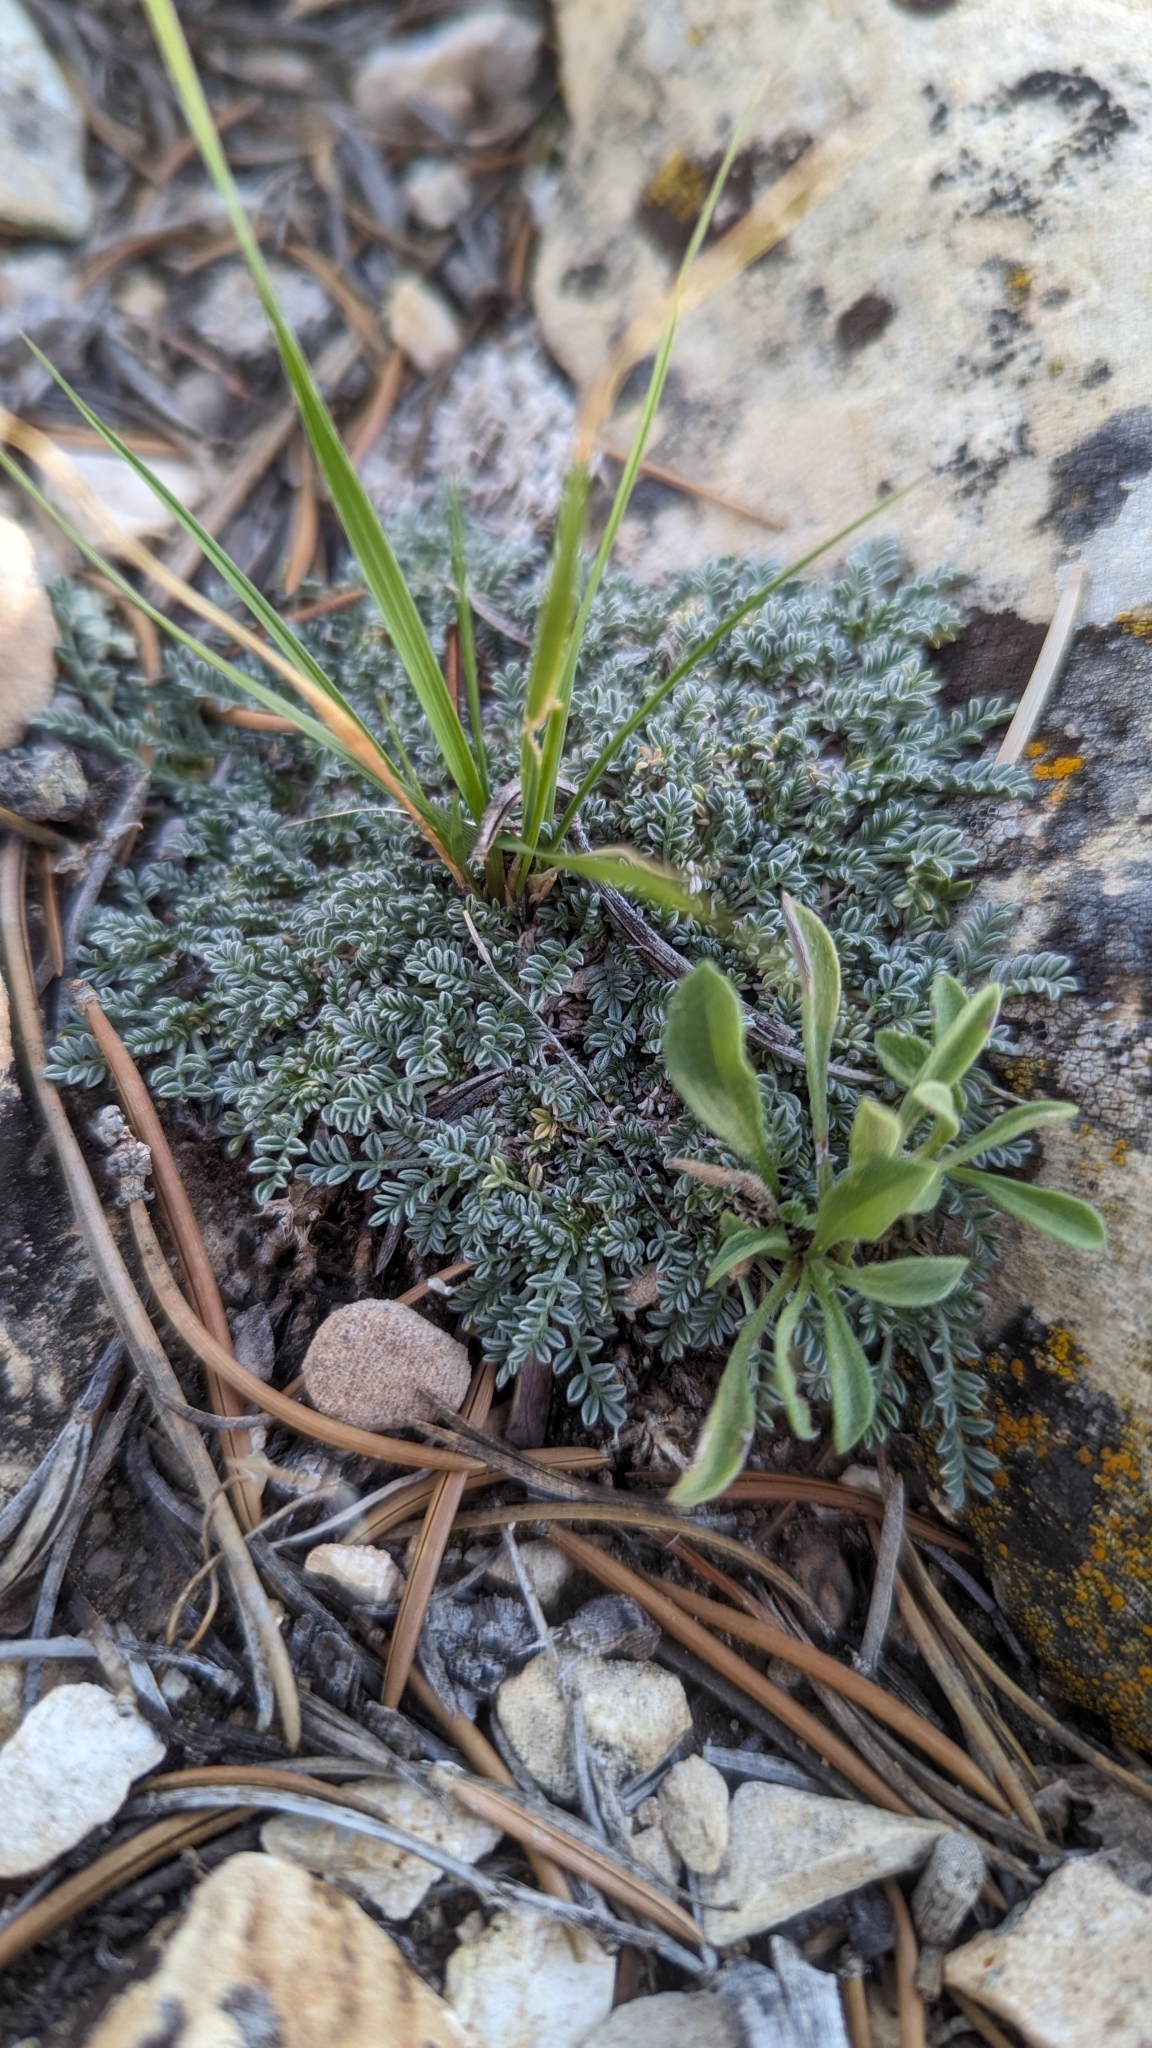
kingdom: Plantae
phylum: Tracheophyta
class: Magnoliopsida
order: Fabales
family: Fabaceae
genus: Astragalus
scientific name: Astragalus cremnophylax
